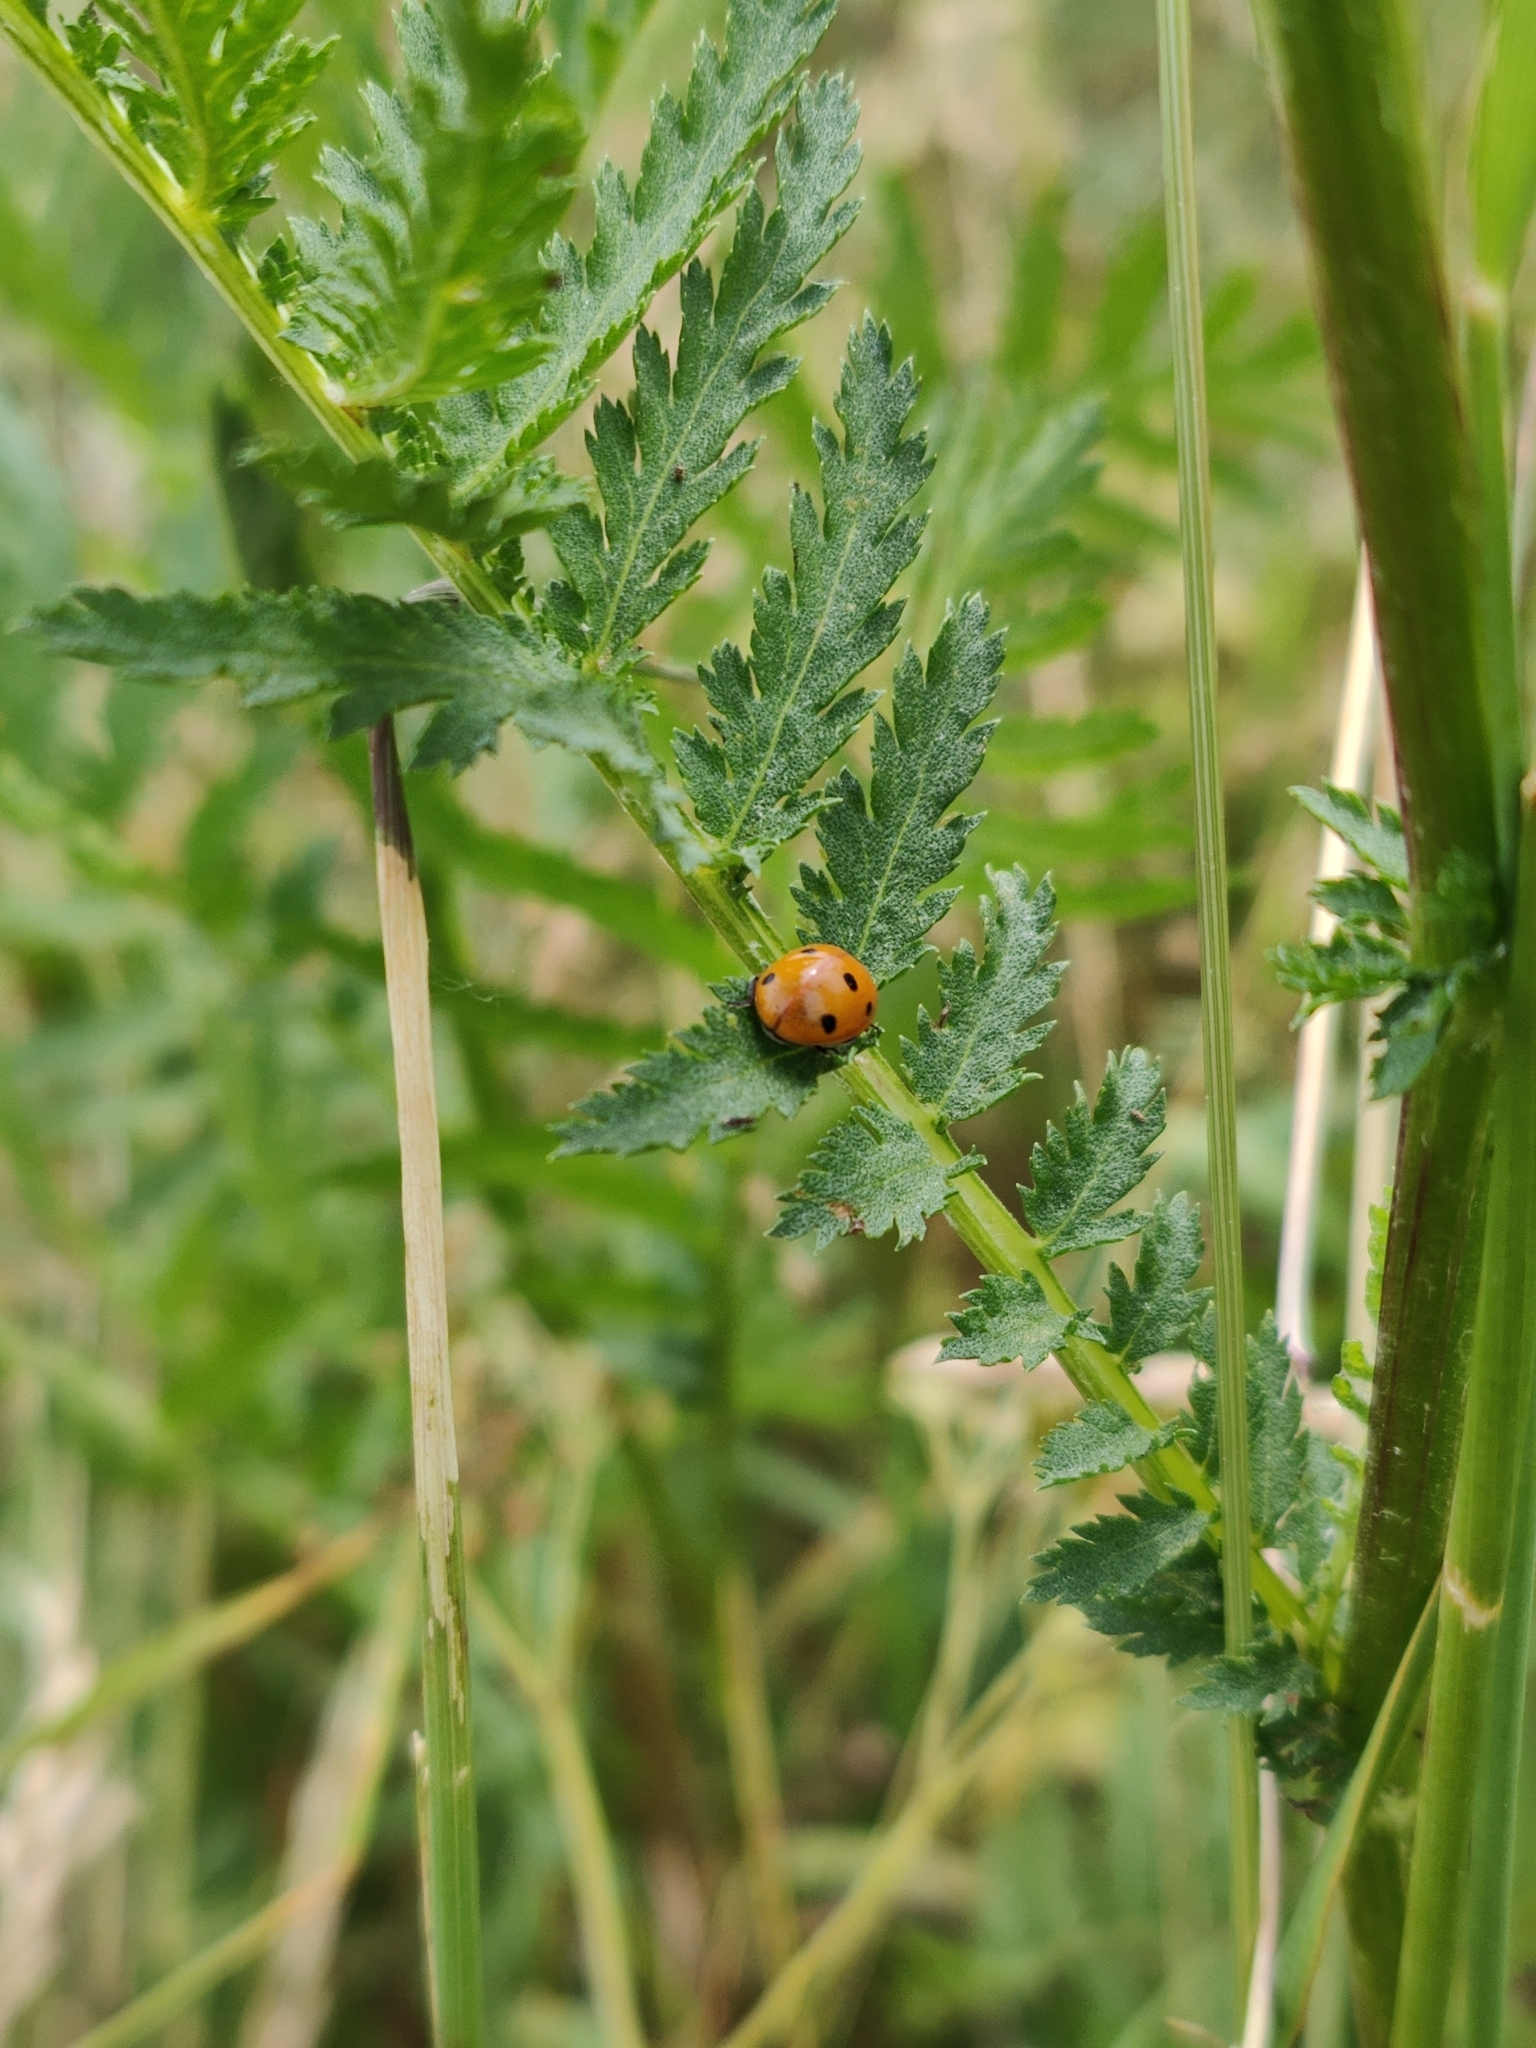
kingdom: Animalia
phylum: Arthropoda
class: Insecta
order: Coleoptera
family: Coccinellidae
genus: Coccinella
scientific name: Coccinella septempunctata
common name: Sevenspotted lady beetle
